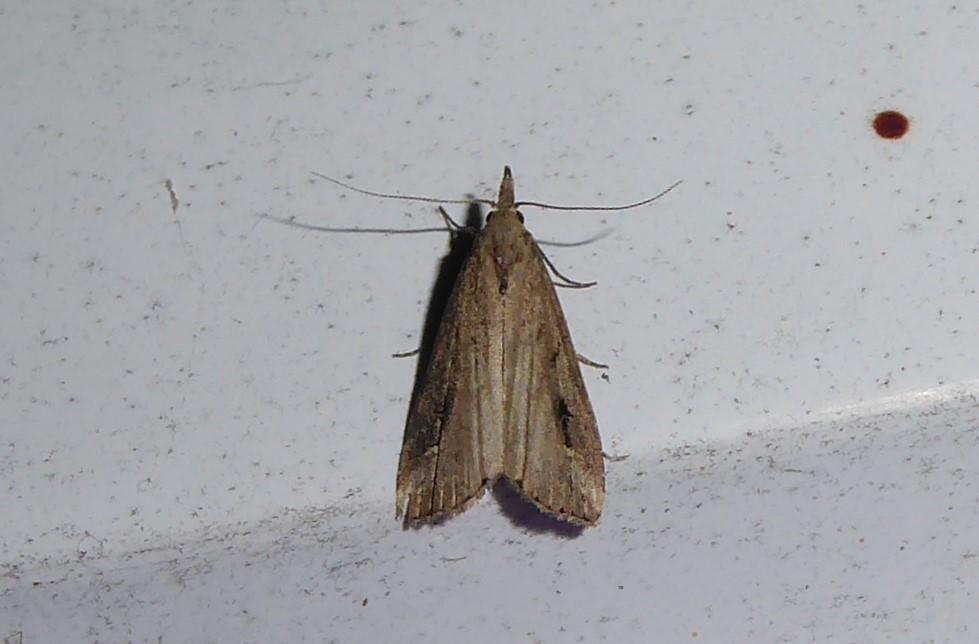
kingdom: Animalia
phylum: Arthropoda
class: Insecta
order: Lepidoptera
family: Erebidae
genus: Schrankia
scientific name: Schrankia costaestrigalis
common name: Pinion-streaked snout
